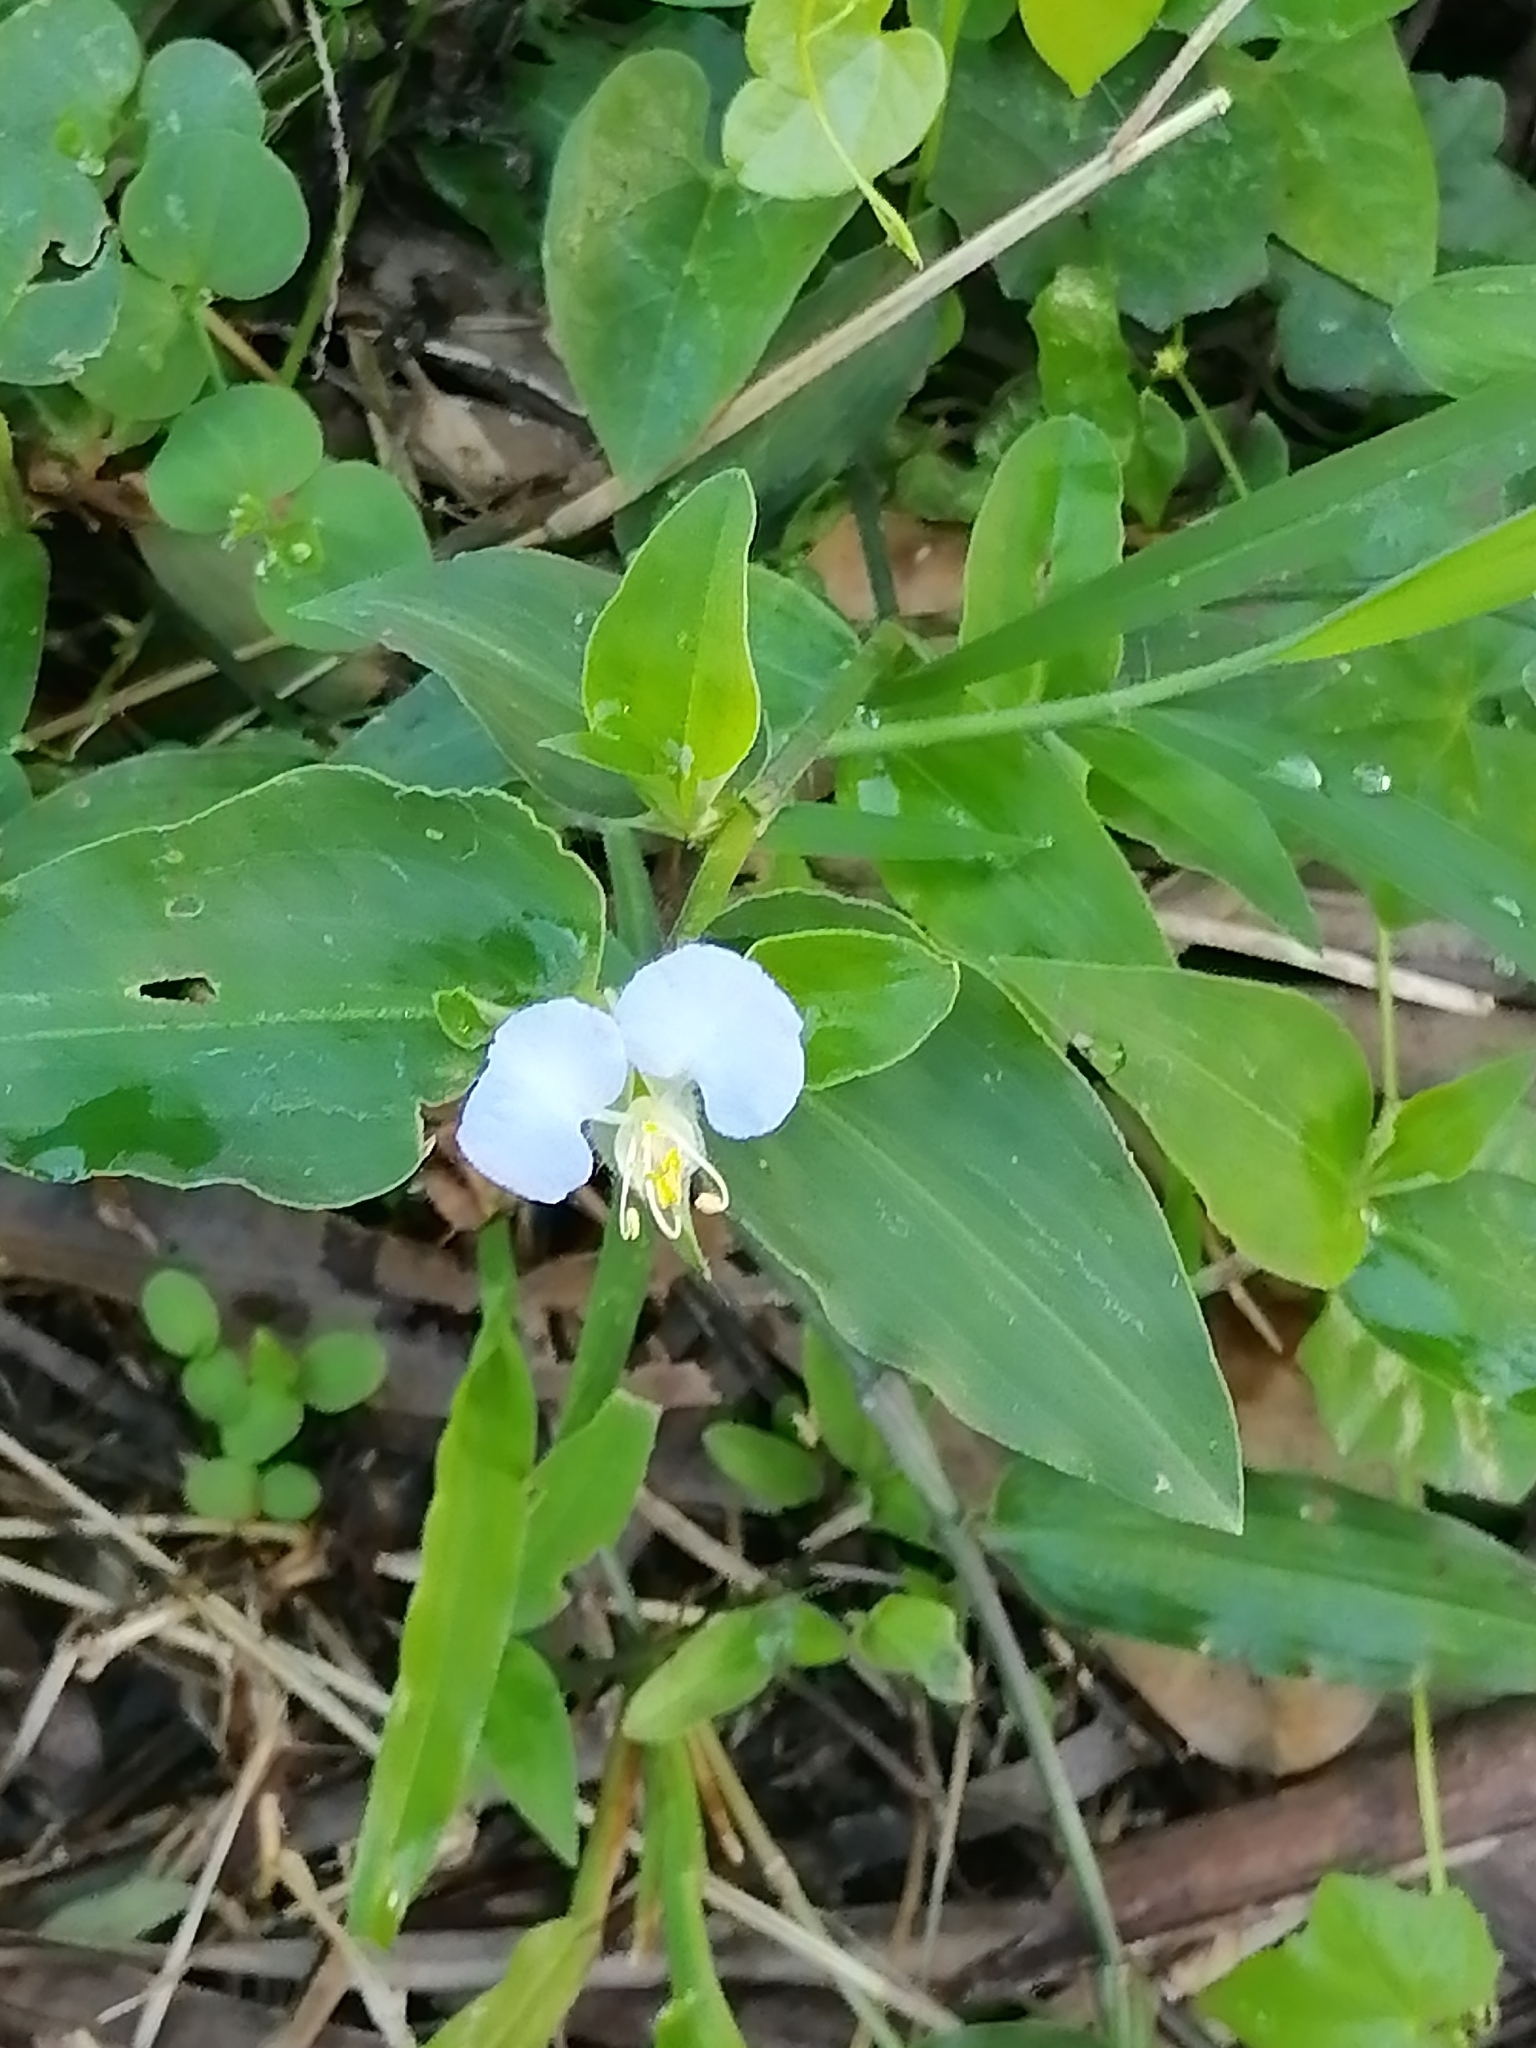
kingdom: Plantae
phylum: Tracheophyta
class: Liliopsida
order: Commelinales
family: Commelinaceae
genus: Commelina
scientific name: Commelina erecta
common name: Blousel blommetjie
